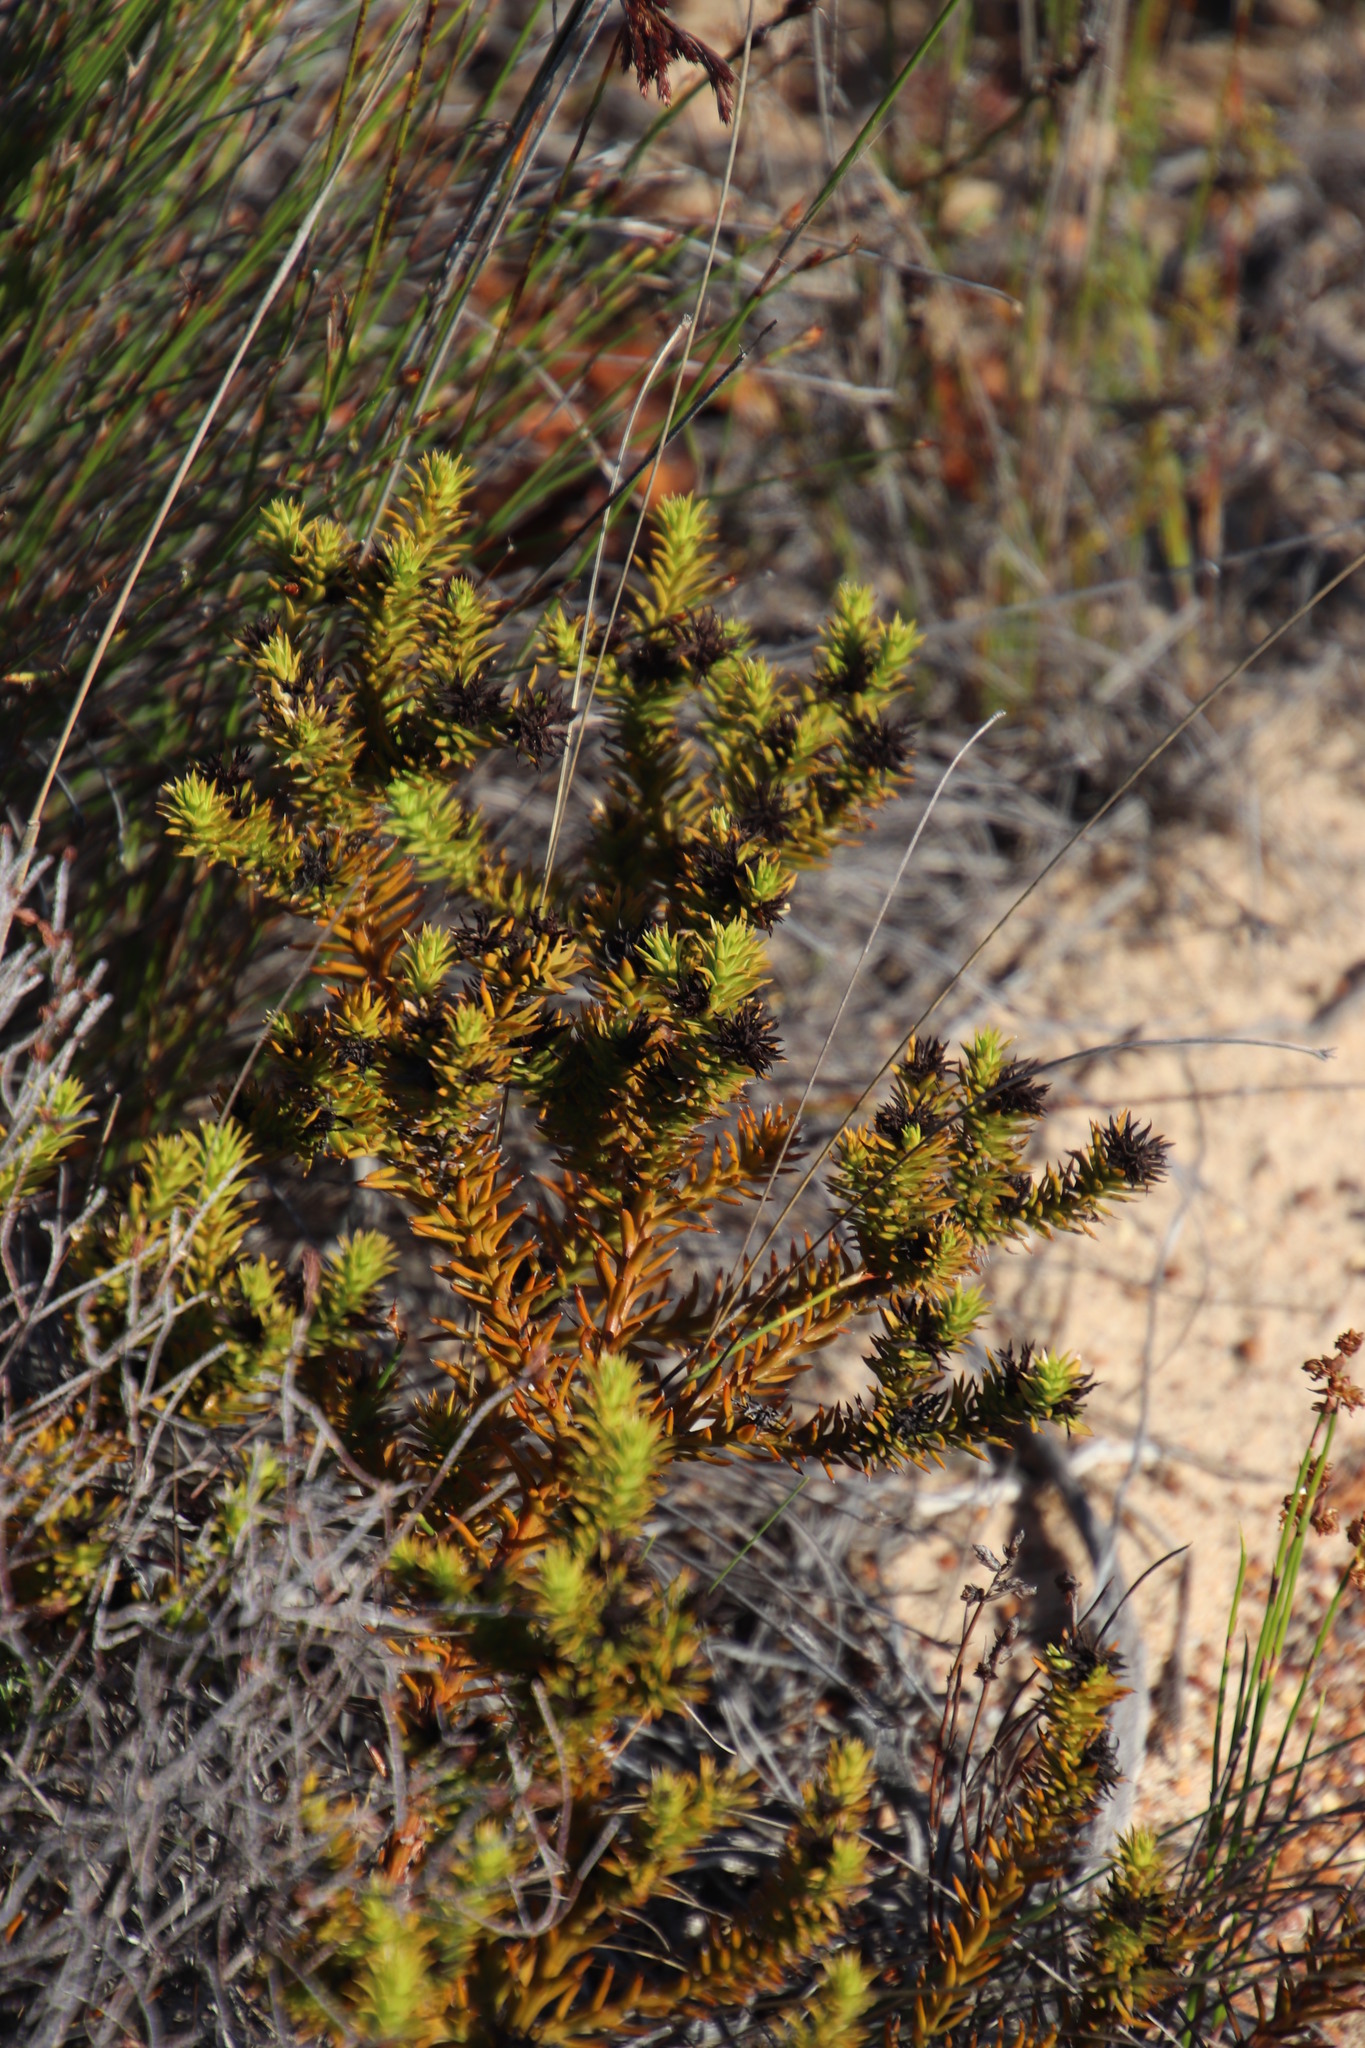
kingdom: Plantae
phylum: Tracheophyta
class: Magnoliopsida
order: Santalales
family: Thesiaceae
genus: Thesium
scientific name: Thesium viridifolium
